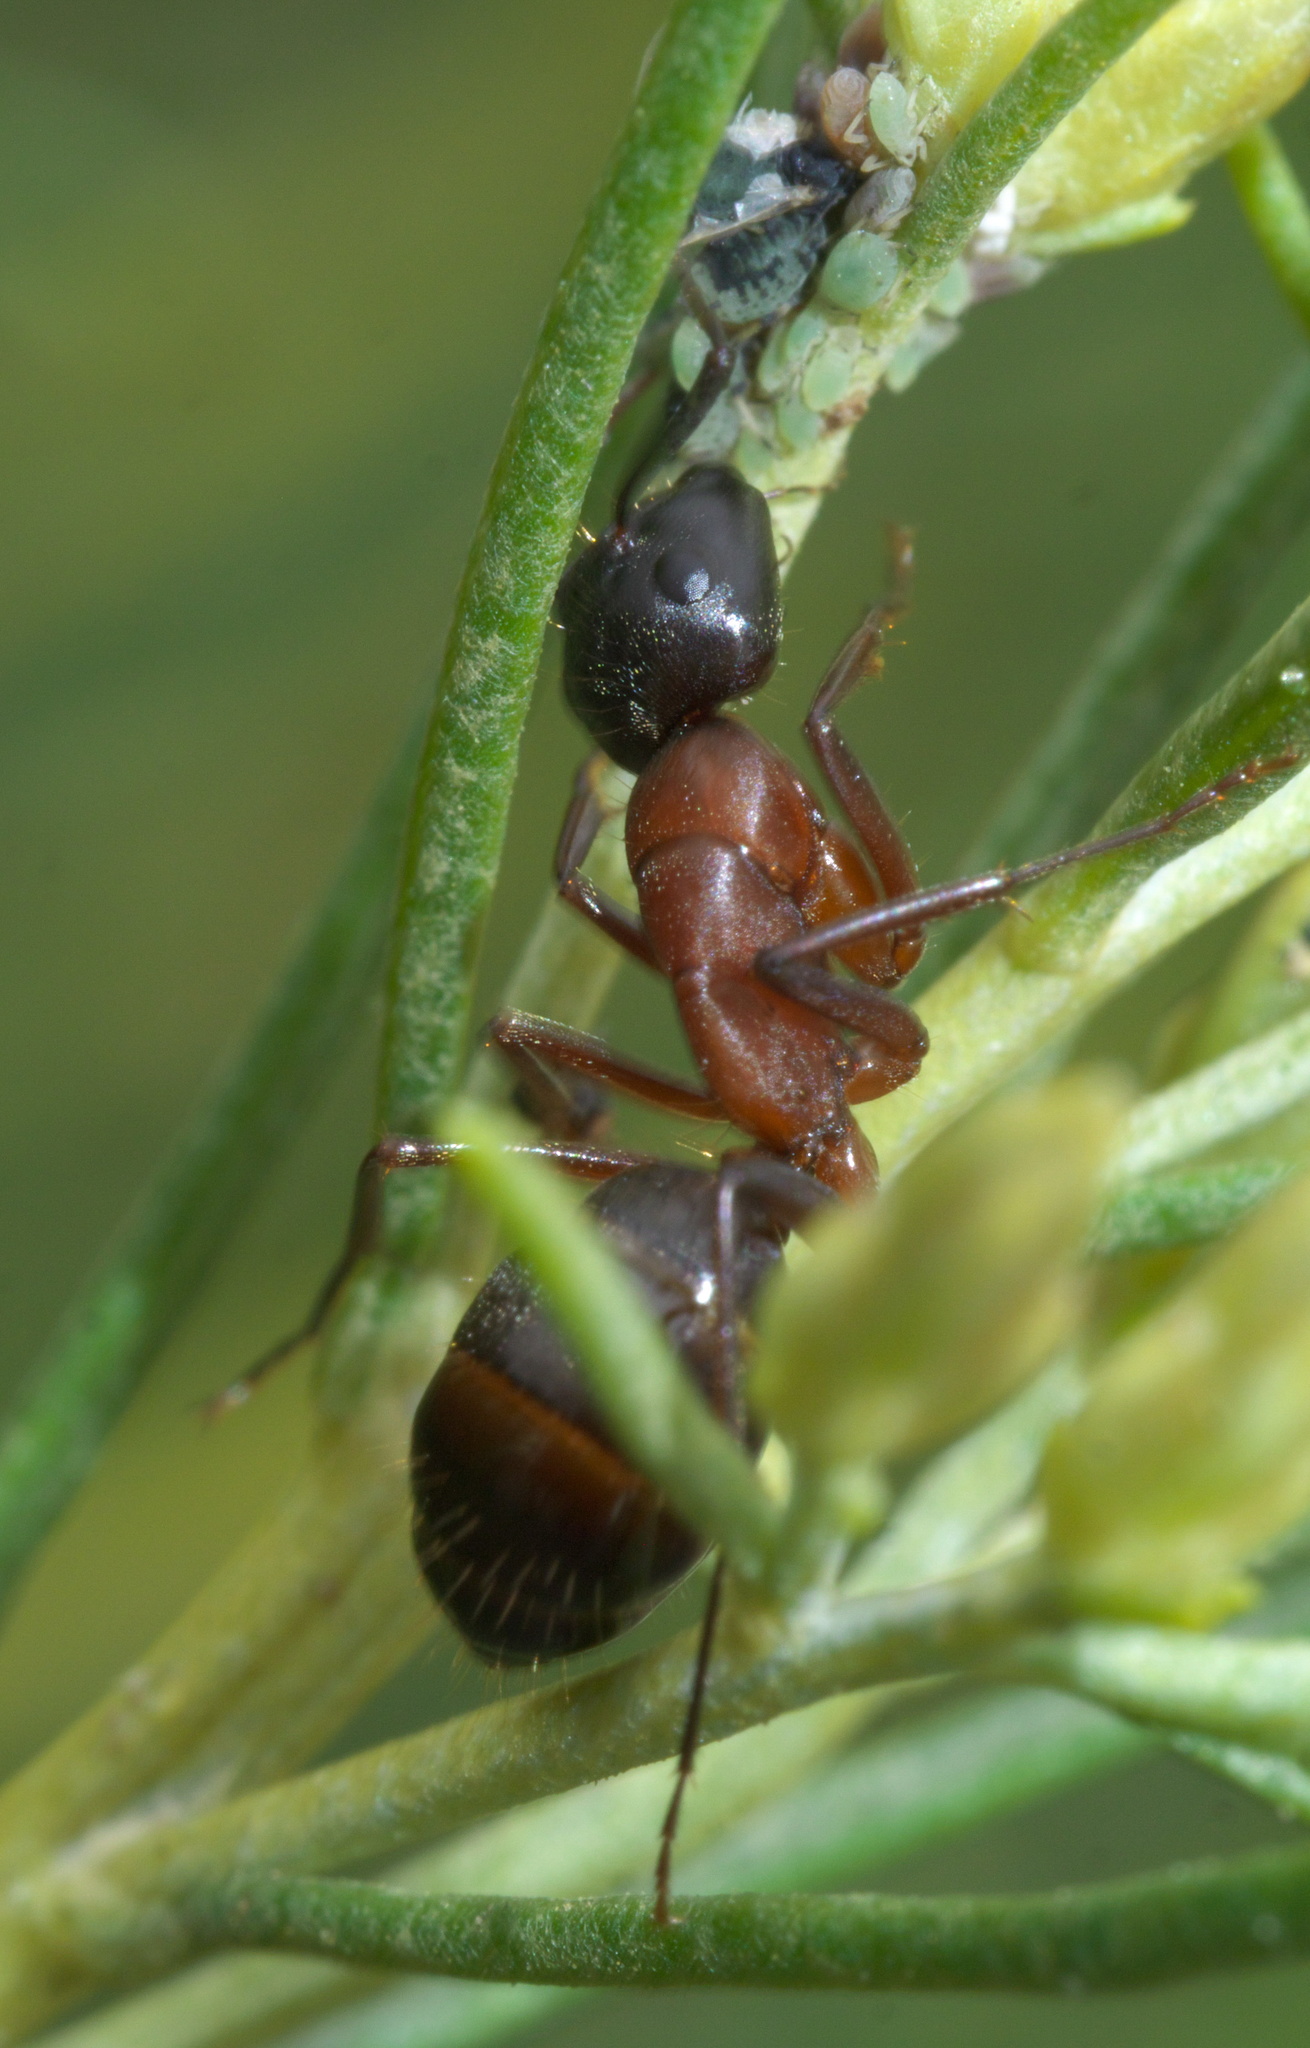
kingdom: Animalia
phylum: Arthropoda
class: Insecta
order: Hymenoptera
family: Formicidae
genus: Camponotus
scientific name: Camponotus vicinus
